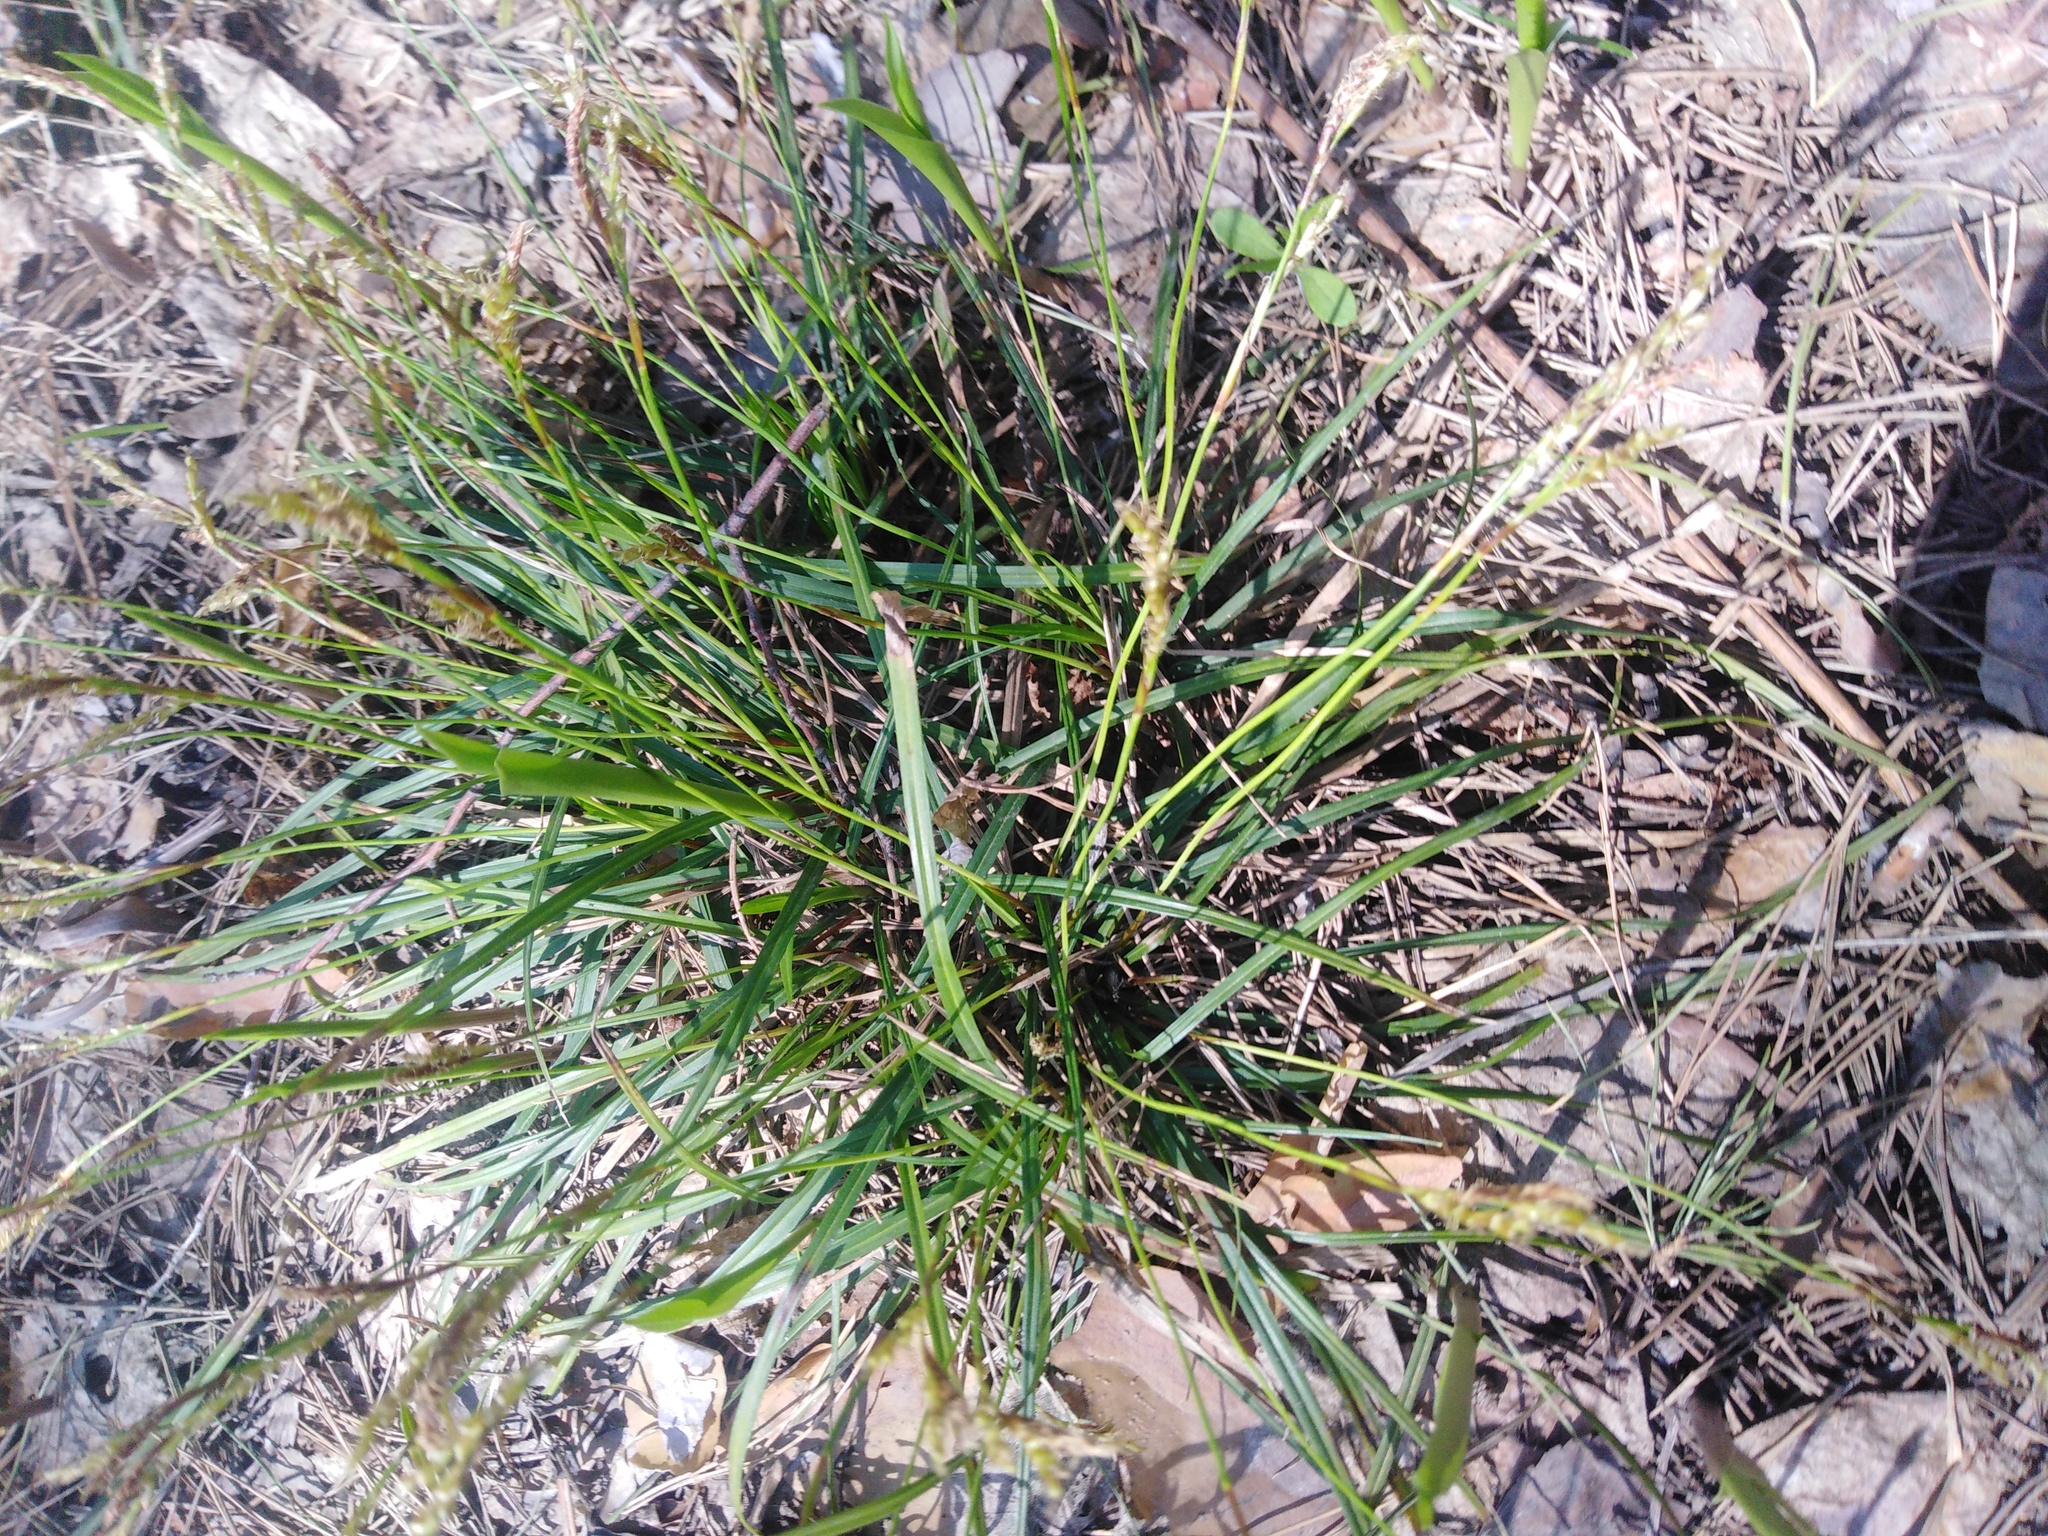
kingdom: Plantae
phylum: Tracheophyta
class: Liliopsida
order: Poales
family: Cyperaceae
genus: Carex
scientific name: Carex digitata
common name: Fingered sedge
